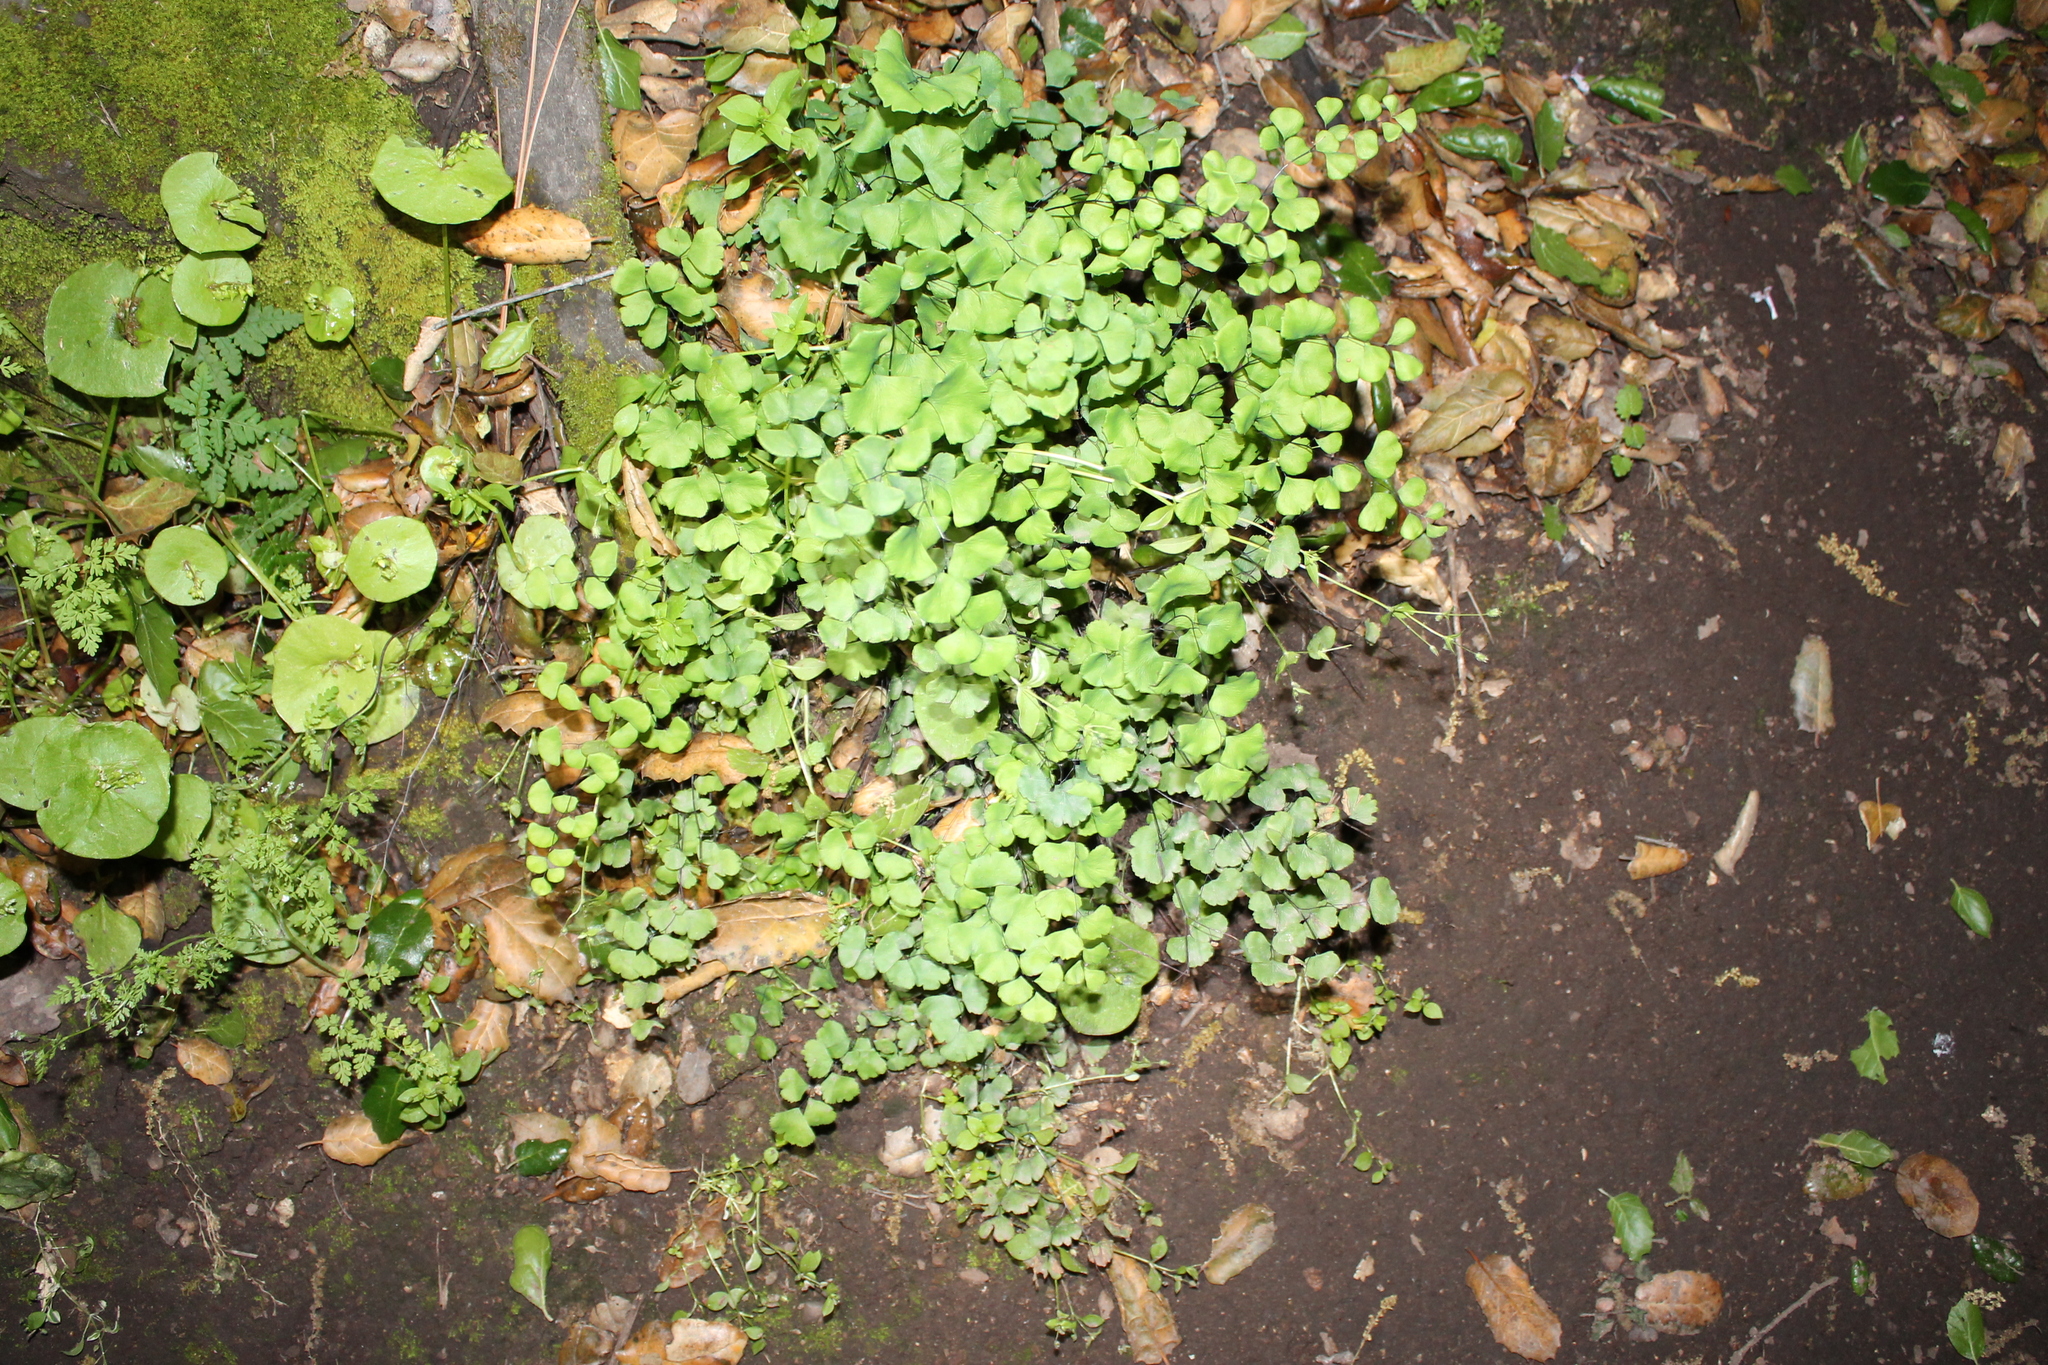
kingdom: Plantae
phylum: Tracheophyta
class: Polypodiopsida
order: Polypodiales
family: Pteridaceae
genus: Adiantum
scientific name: Adiantum jordanii
